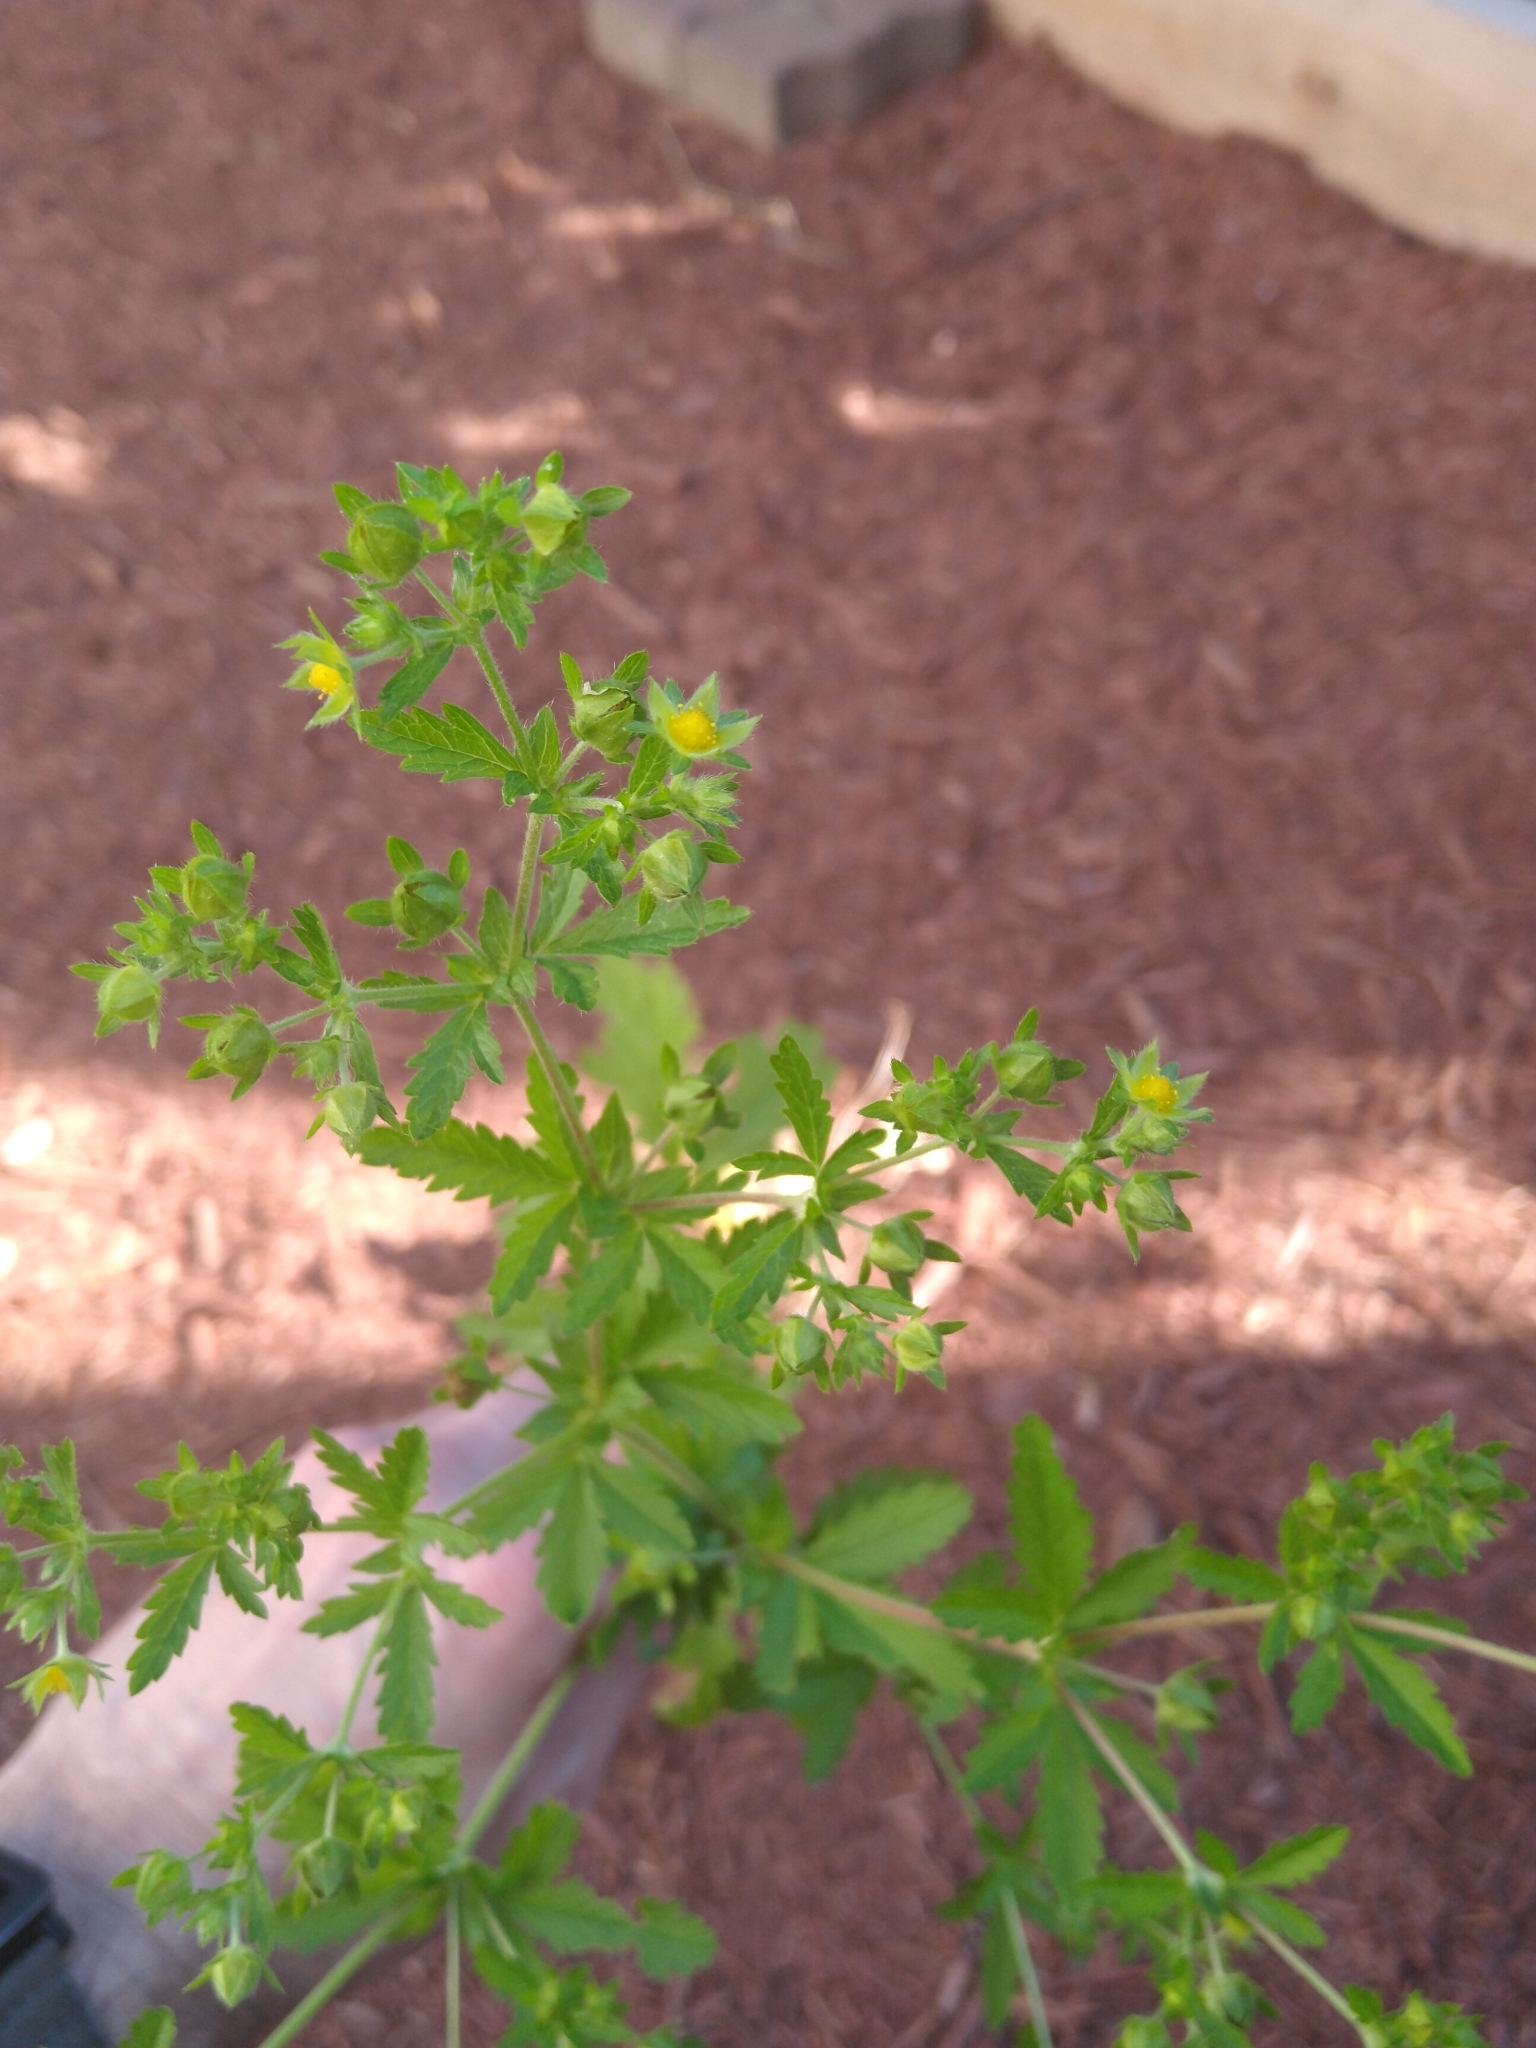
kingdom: Plantae
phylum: Tracheophyta
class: Magnoliopsida
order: Rosales
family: Rosaceae
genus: Potentilla
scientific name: Potentilla norvegica
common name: Ternate-leaved cinquefoil
